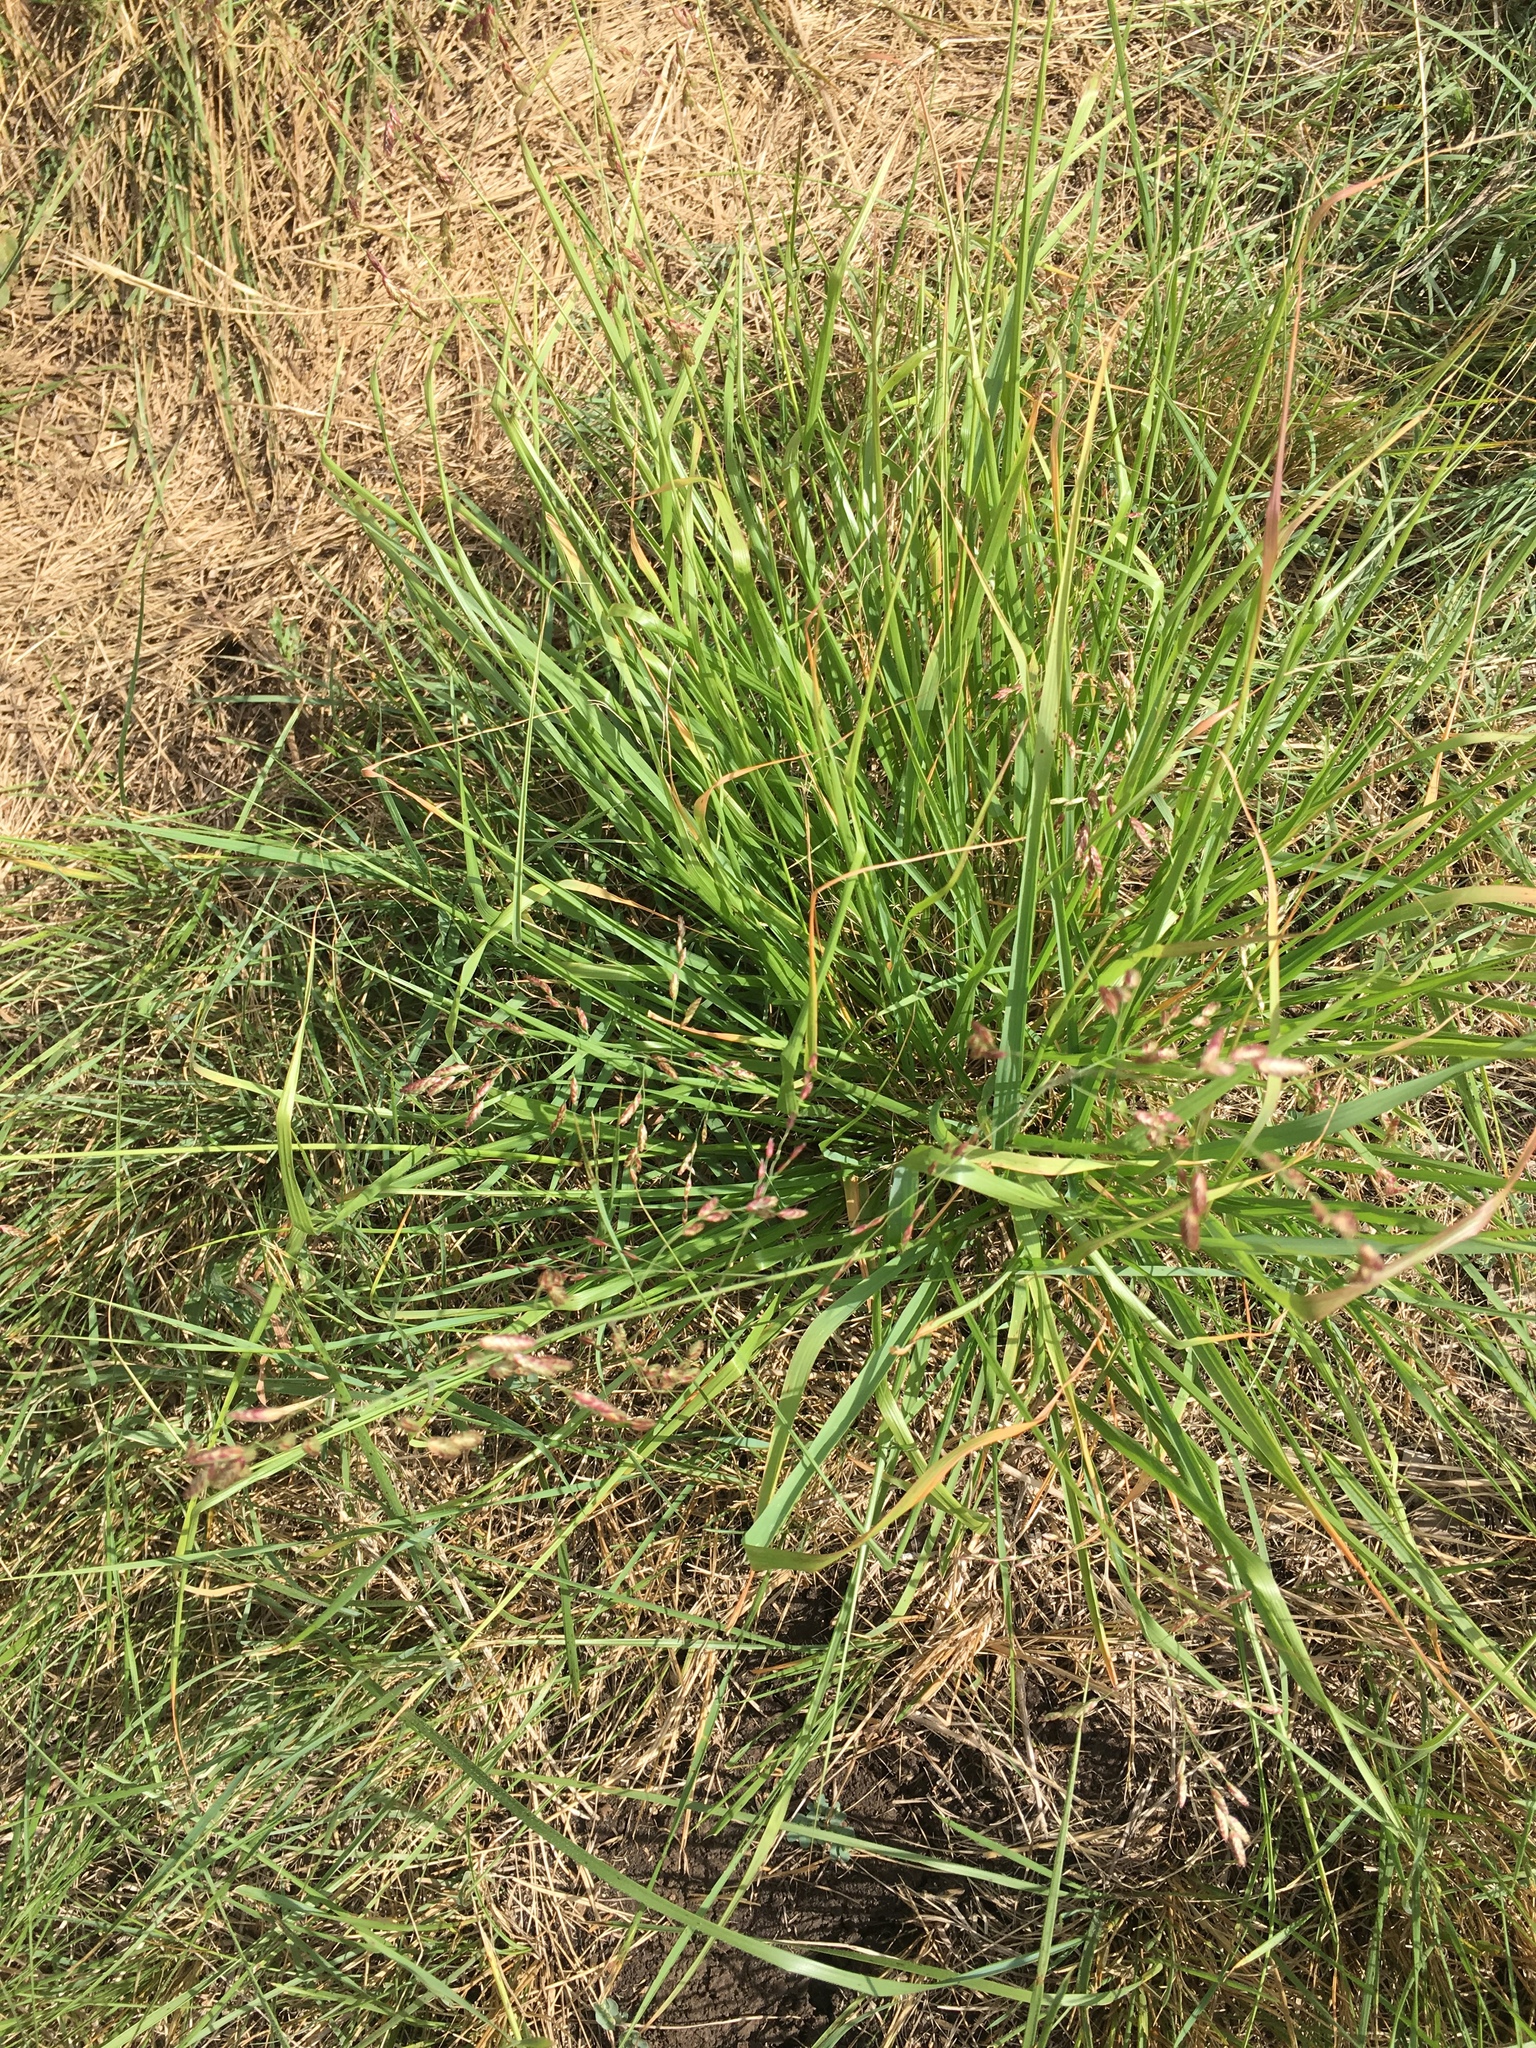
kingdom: Plantae
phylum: Tracheophyta
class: Liliopsida
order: Poales
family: Poaceae
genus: Tridens
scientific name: Tridens texanus
